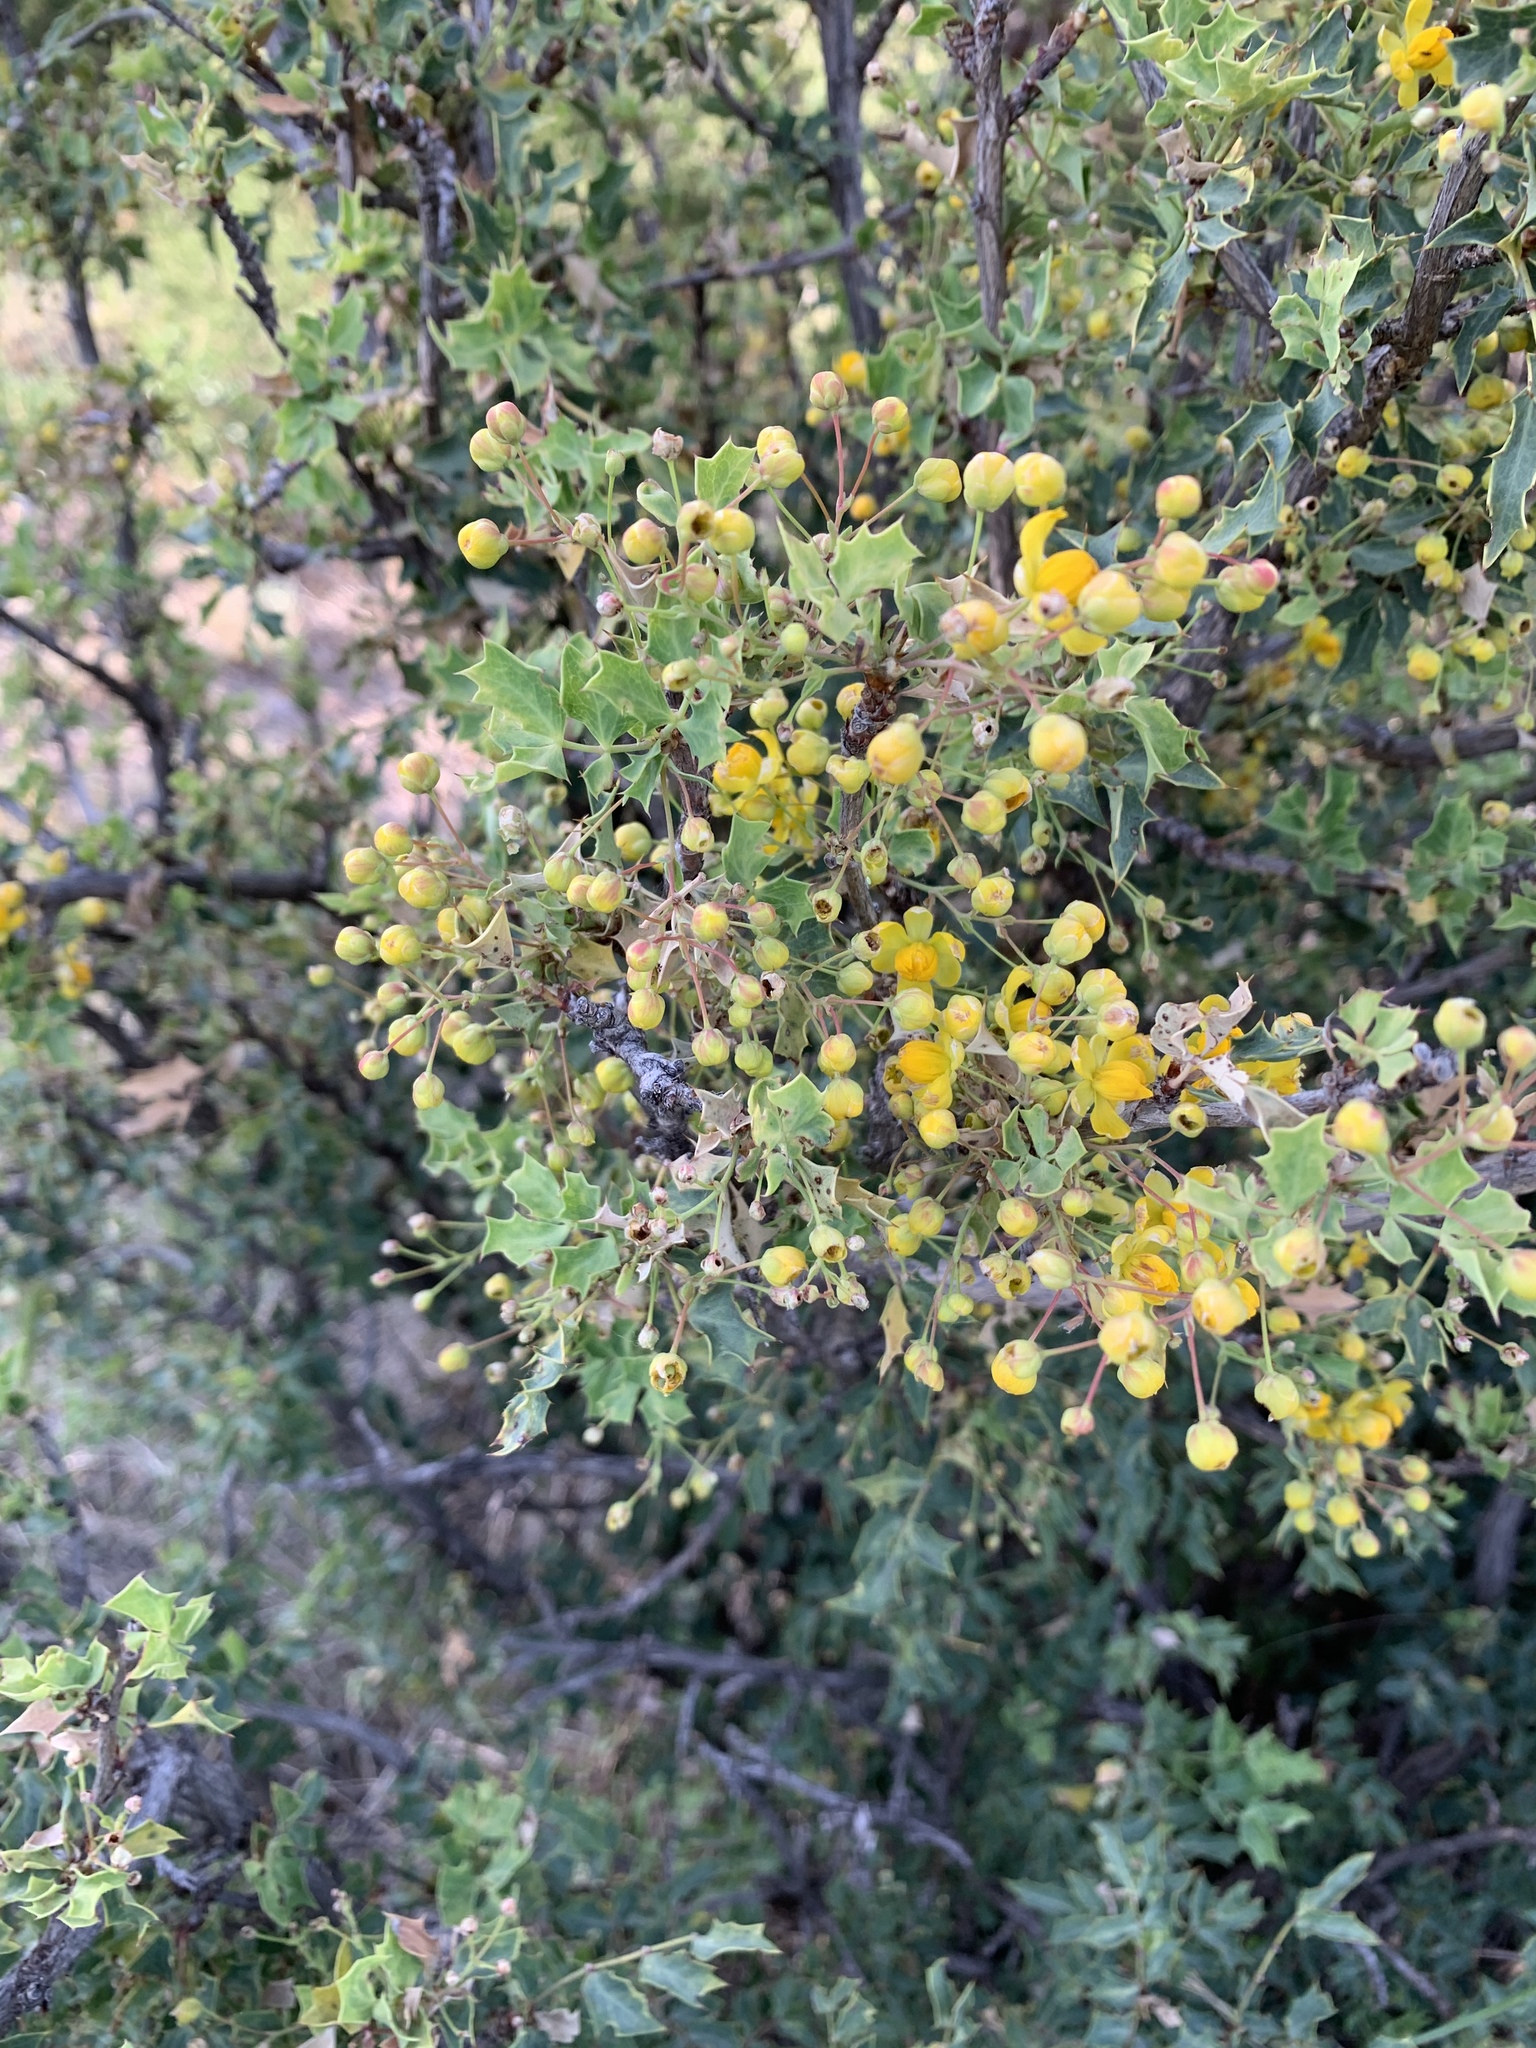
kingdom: Plantae
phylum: Tracheophyta
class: Magnoliopsida
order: Ranunculales
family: Berberidaceae
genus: Alloberberis
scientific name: Alloberberis haematocarpa
